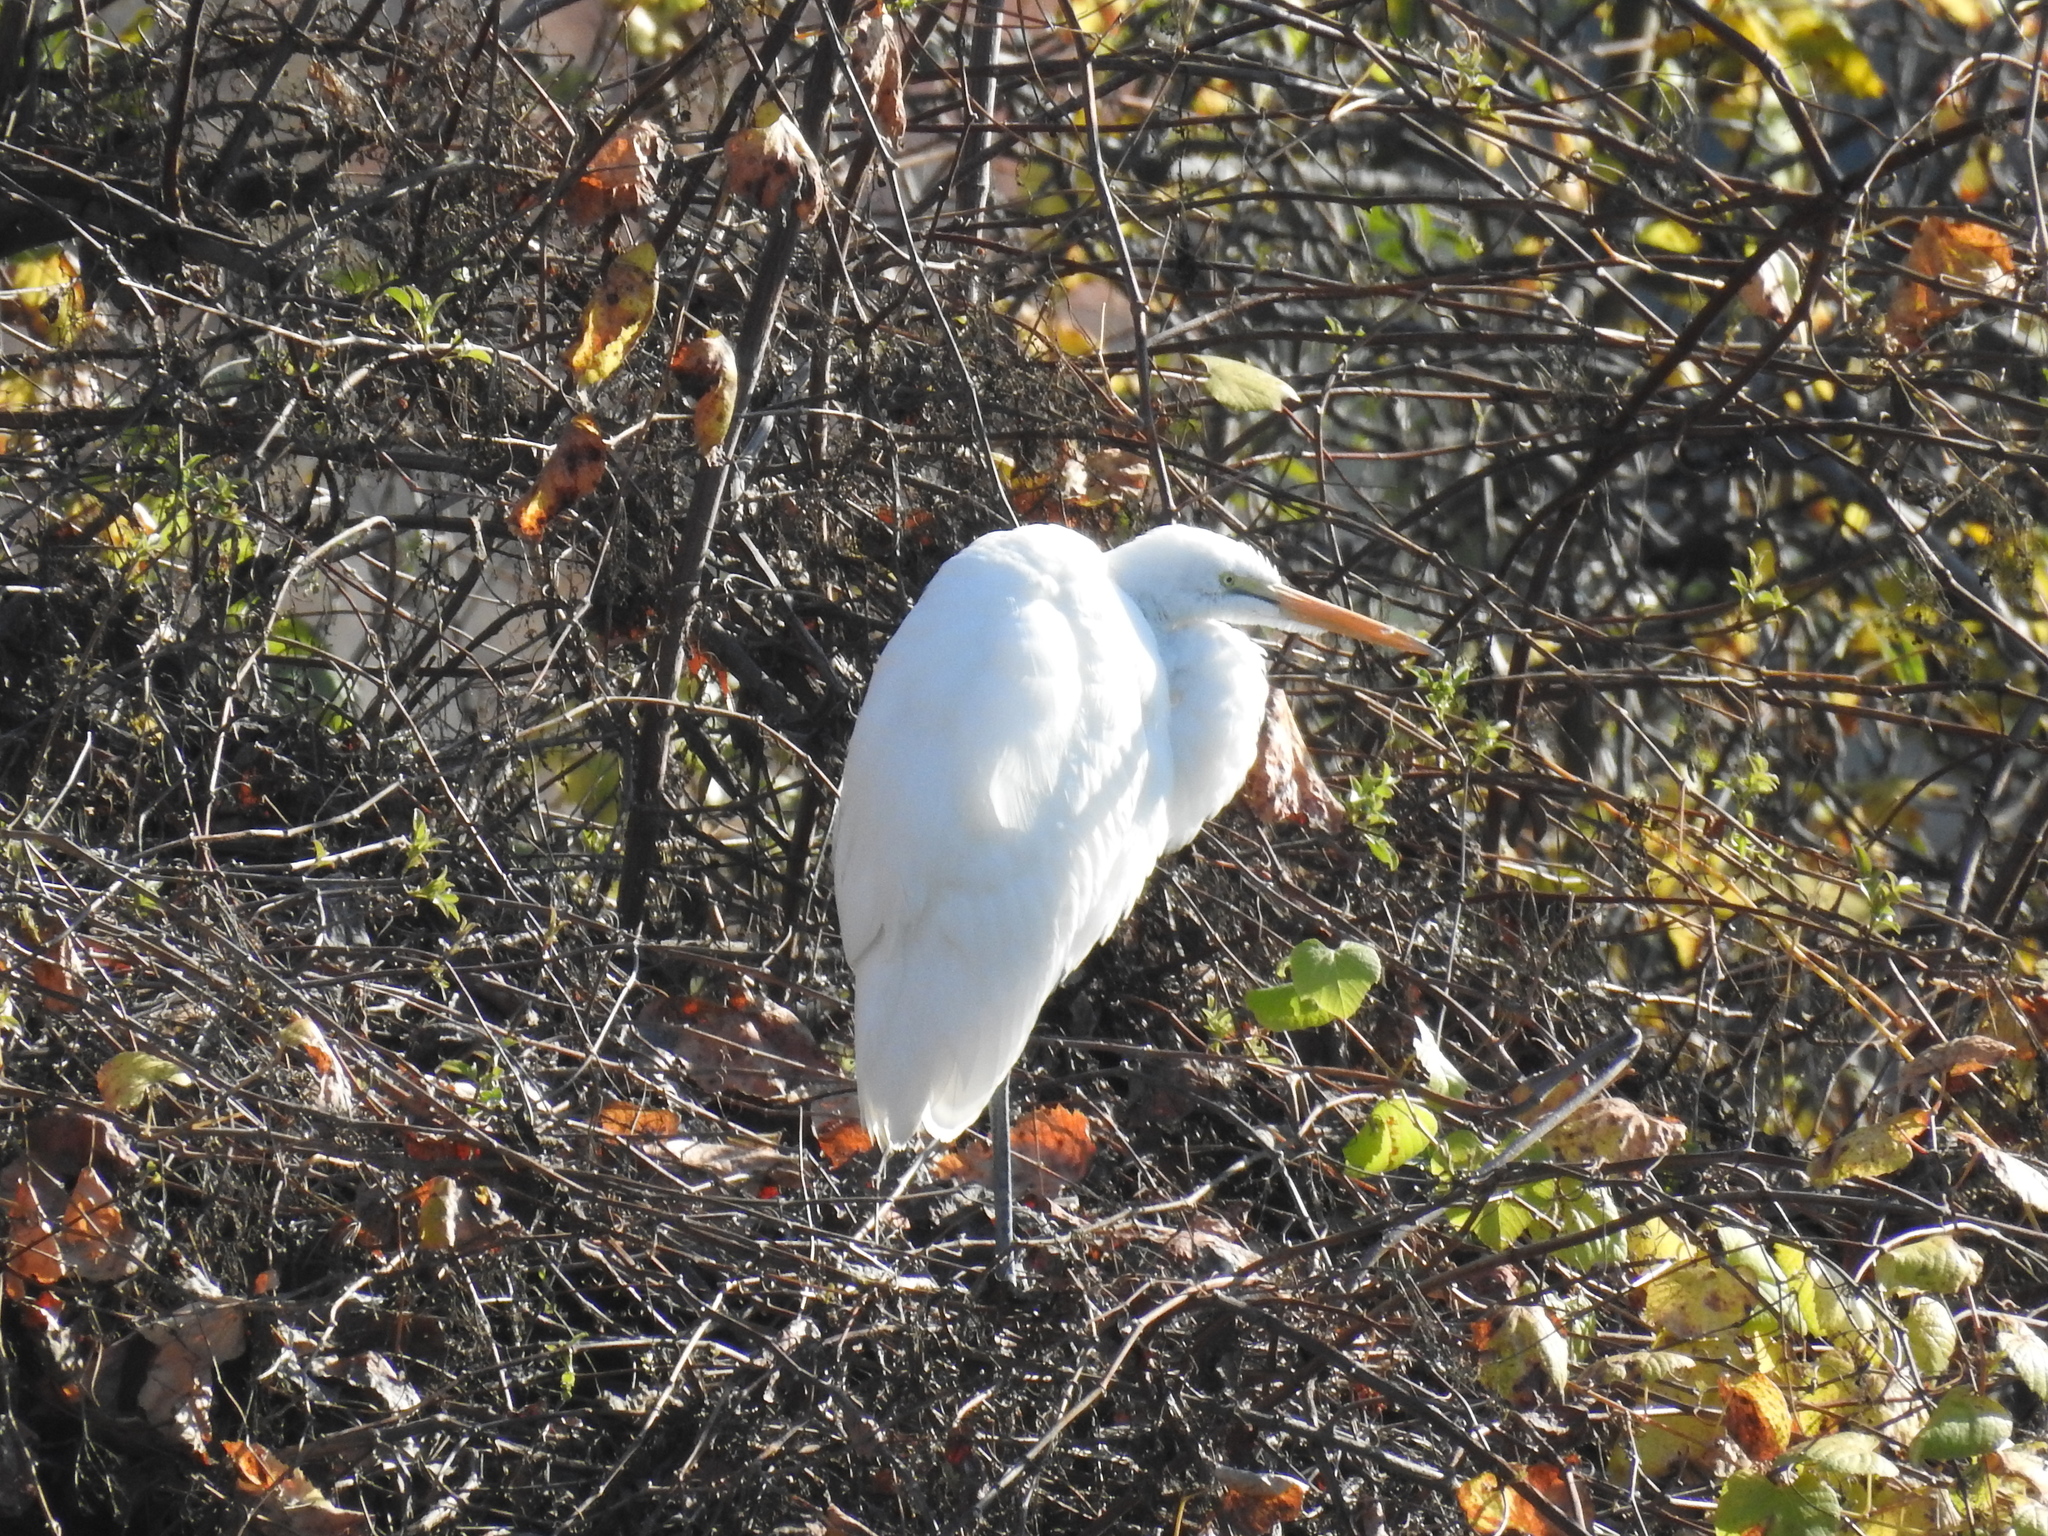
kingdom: Animalia
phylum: Chordata
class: Aves
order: Pelecaniformes
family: Ardeidae
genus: Ardea
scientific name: Ardea alba
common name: Great egret
